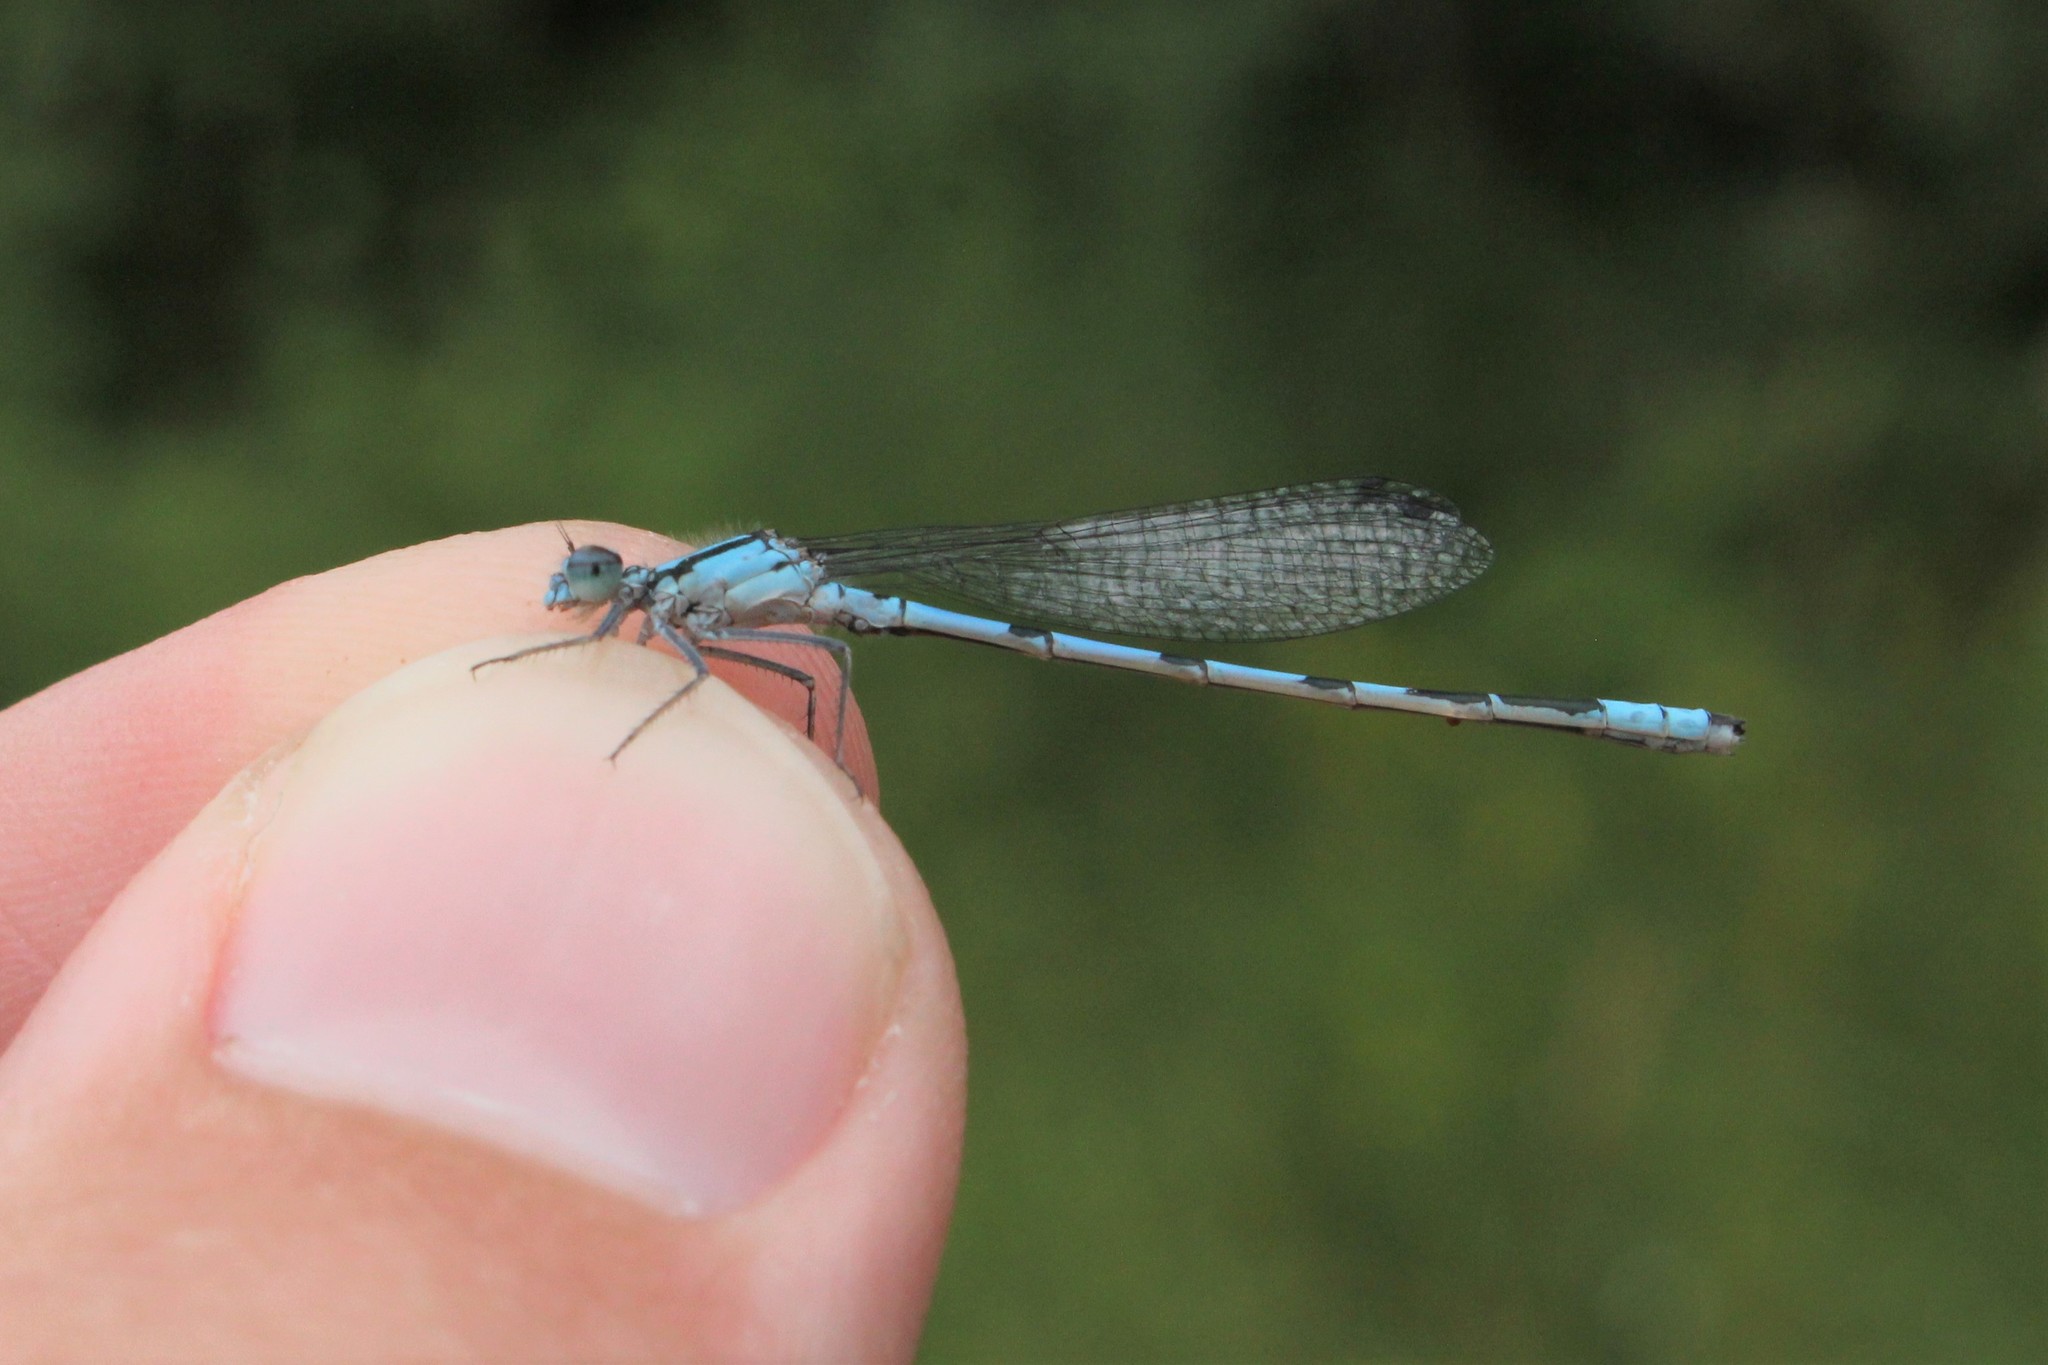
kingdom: Animalia
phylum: Arthropoda
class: Insecta
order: Odonata
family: Coenagrionidae
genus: Enallagma
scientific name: Enallagma ebrium
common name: Marsh bluet
